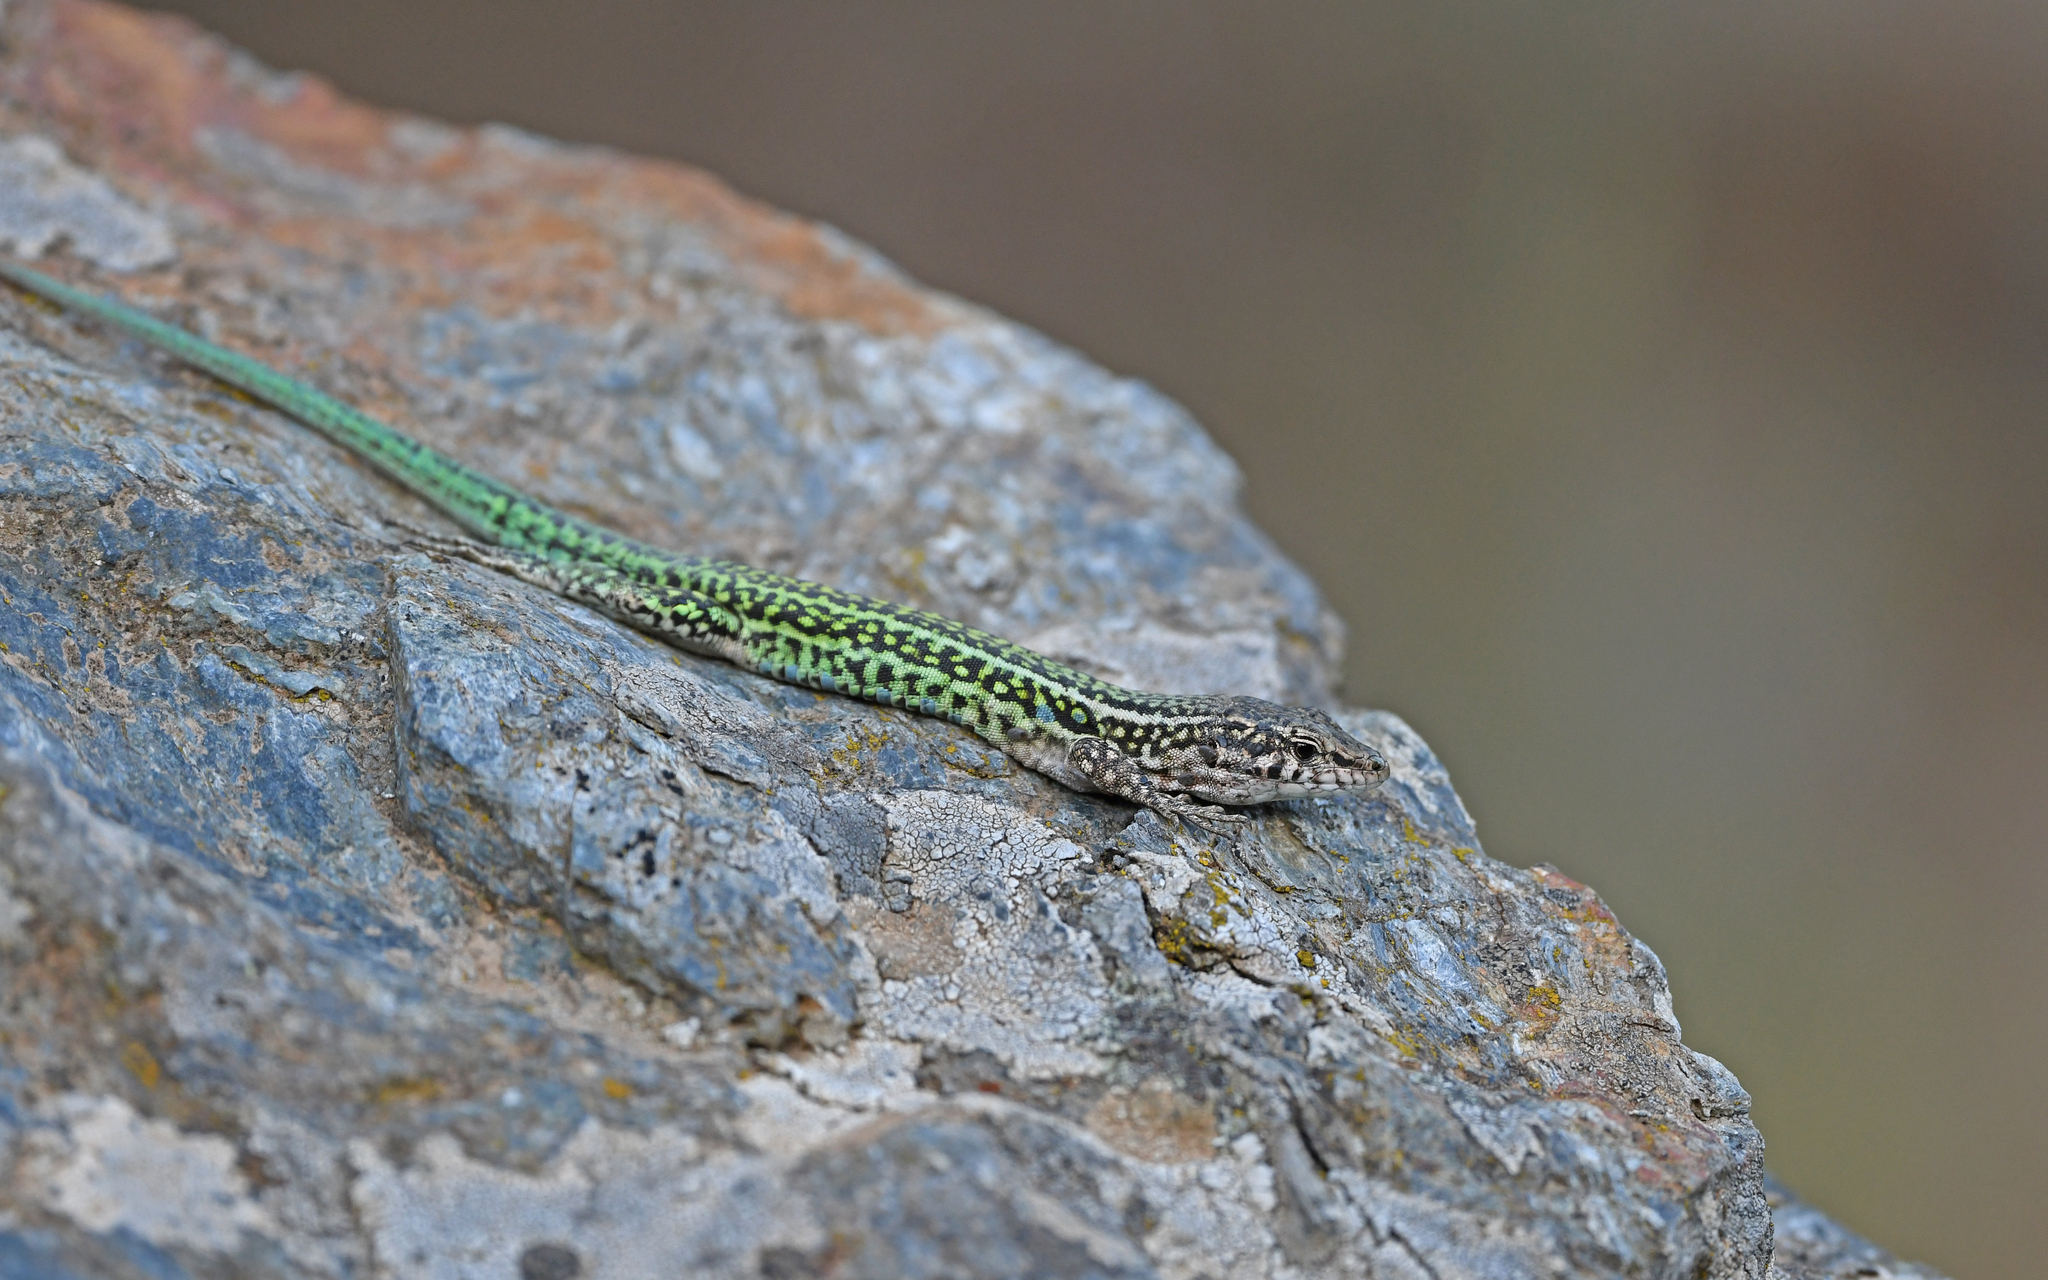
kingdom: Animalia
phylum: Chordata
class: Squamata
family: Lacertidae
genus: Podarcis
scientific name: Podarcis tiliguerta
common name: Tyrrhenian wall lizard
